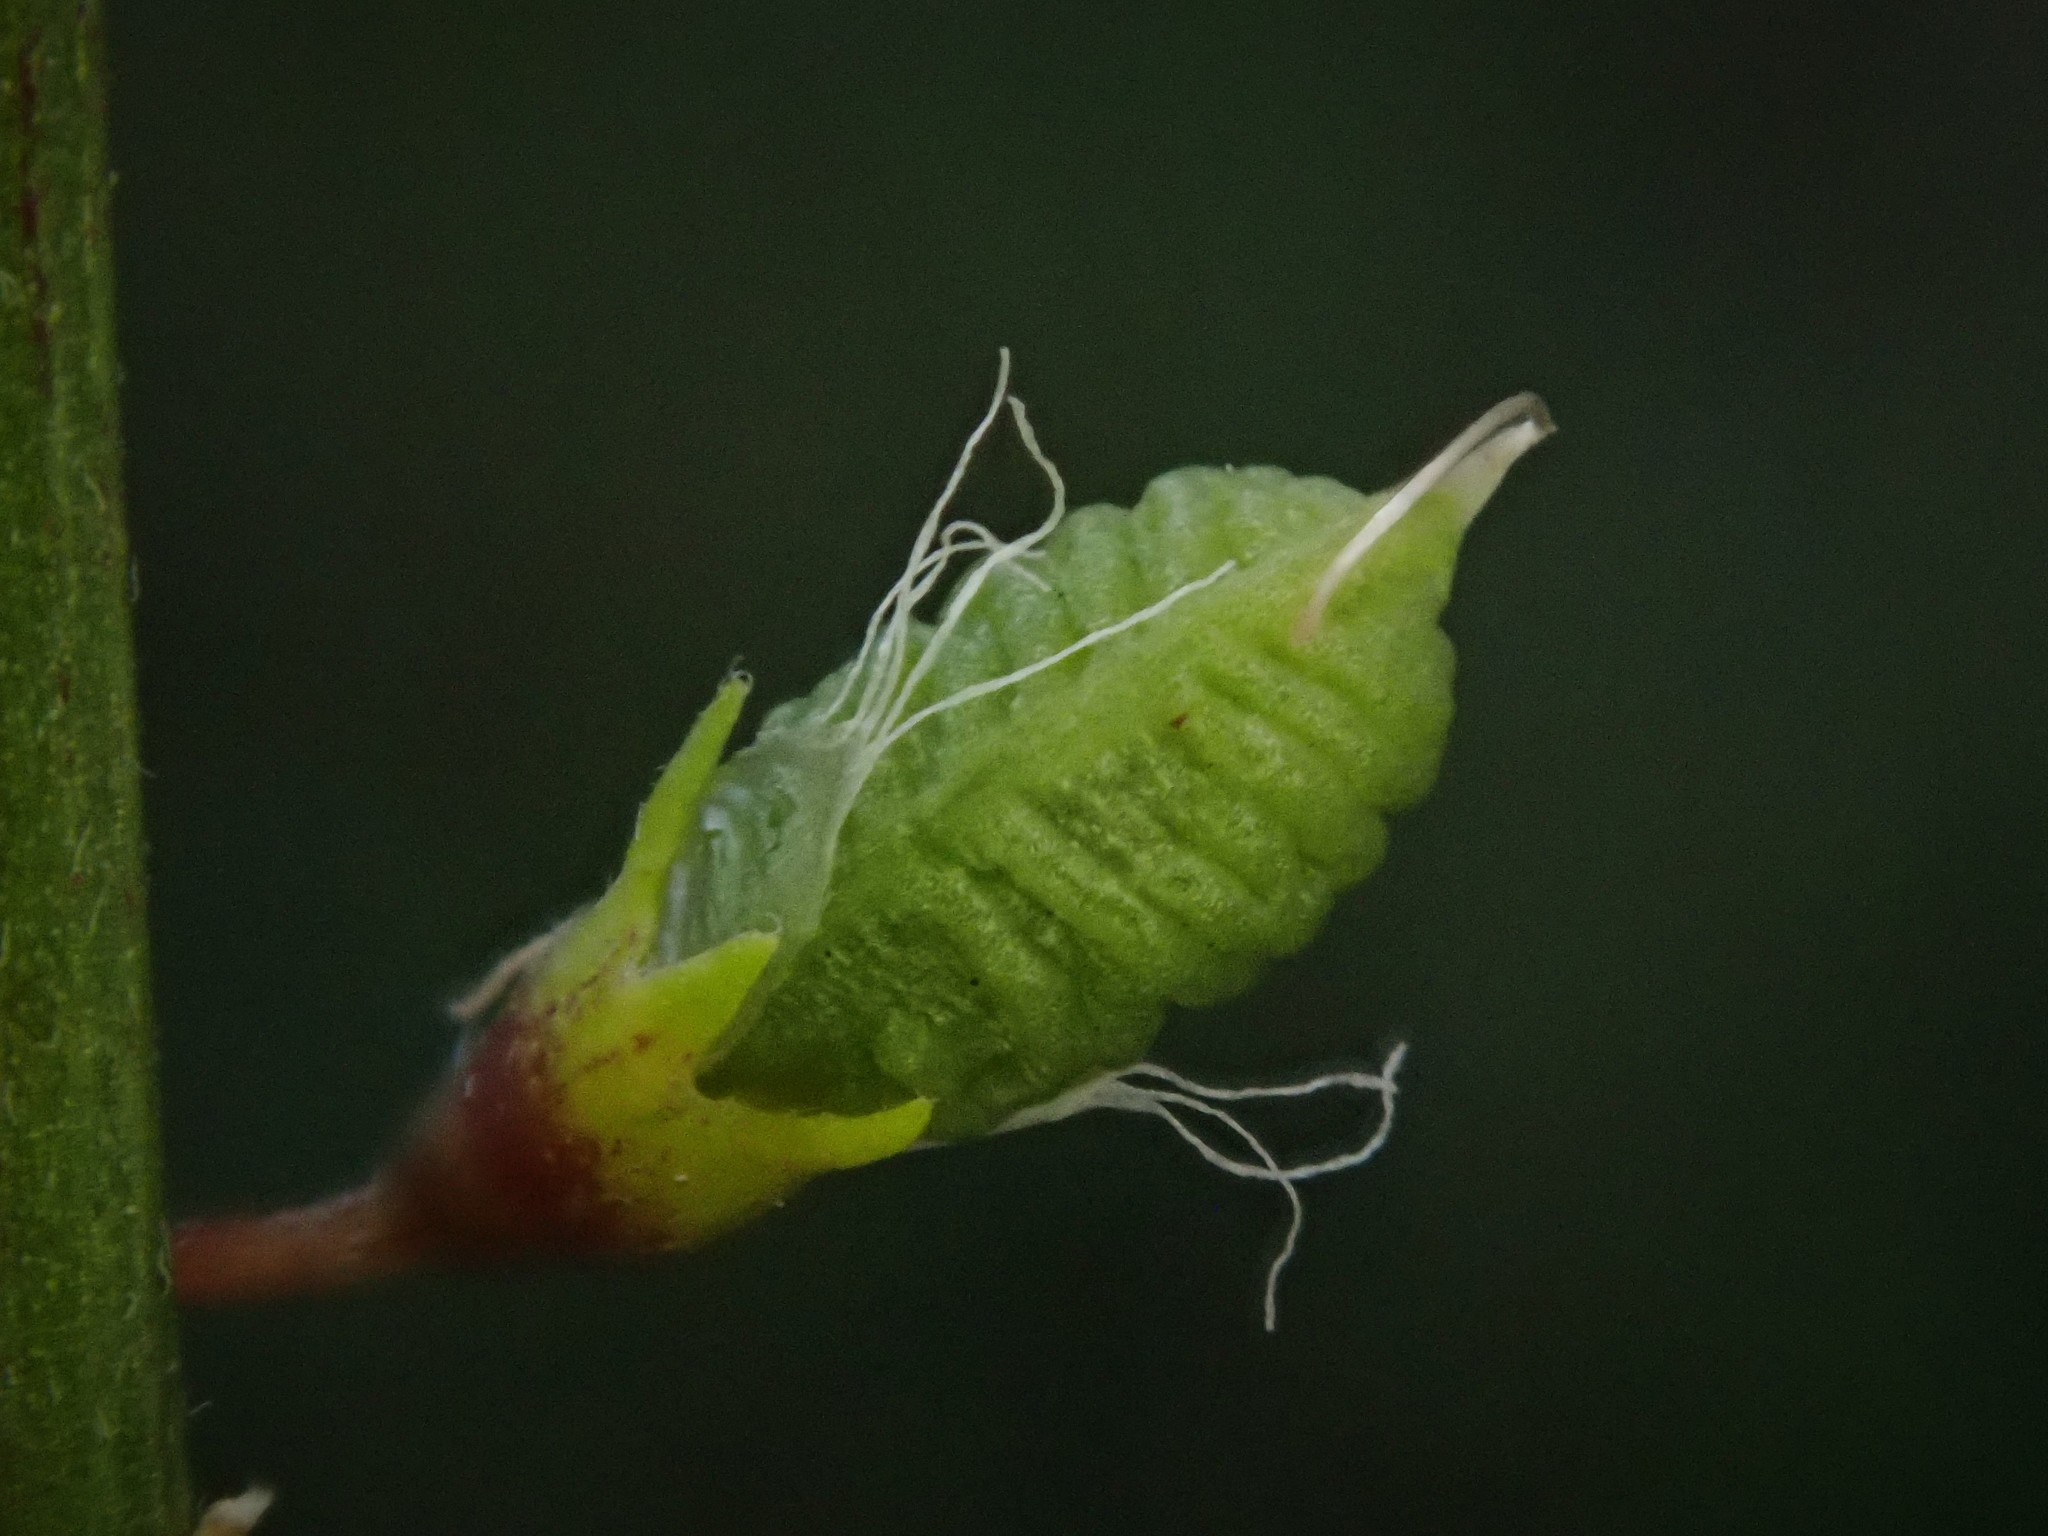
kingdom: Plantae
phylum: Tracheophyta
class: Magnoliopsida
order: Fabales
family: Fabaceae
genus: Melilotus
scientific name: Melilotus officinalis
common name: Sweetclover
